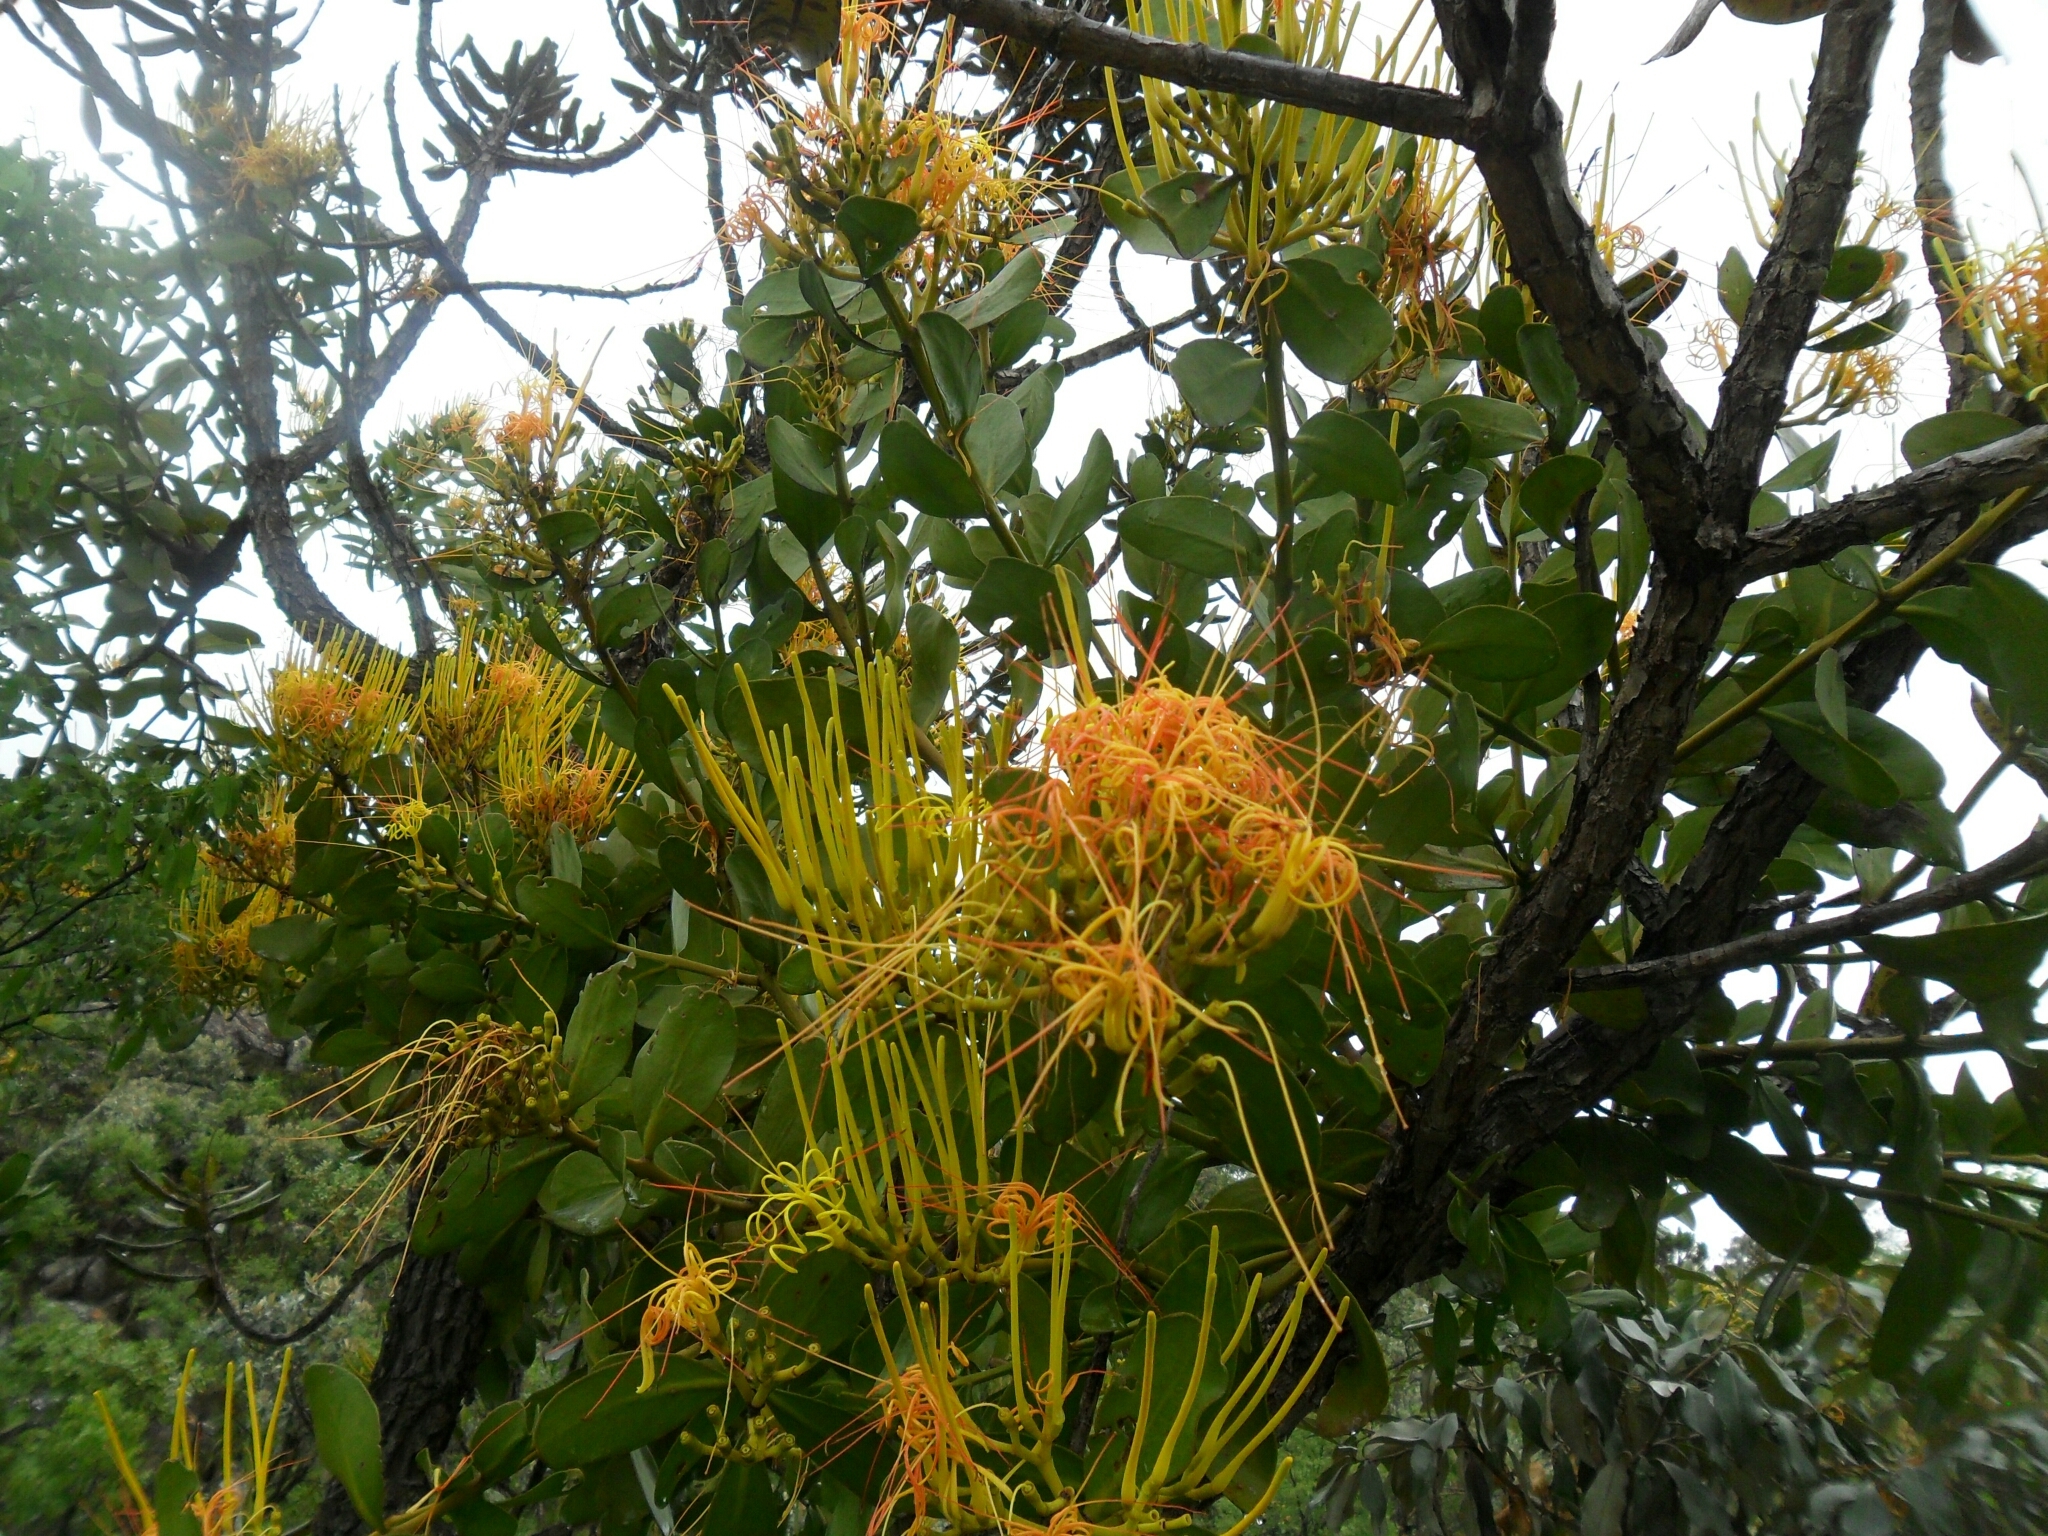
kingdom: Plantae
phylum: Tracheophyta
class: Magnoliopsida
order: Santalales
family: Loranthaceae
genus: Psittacanthus
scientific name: Psittacanthus robustus
